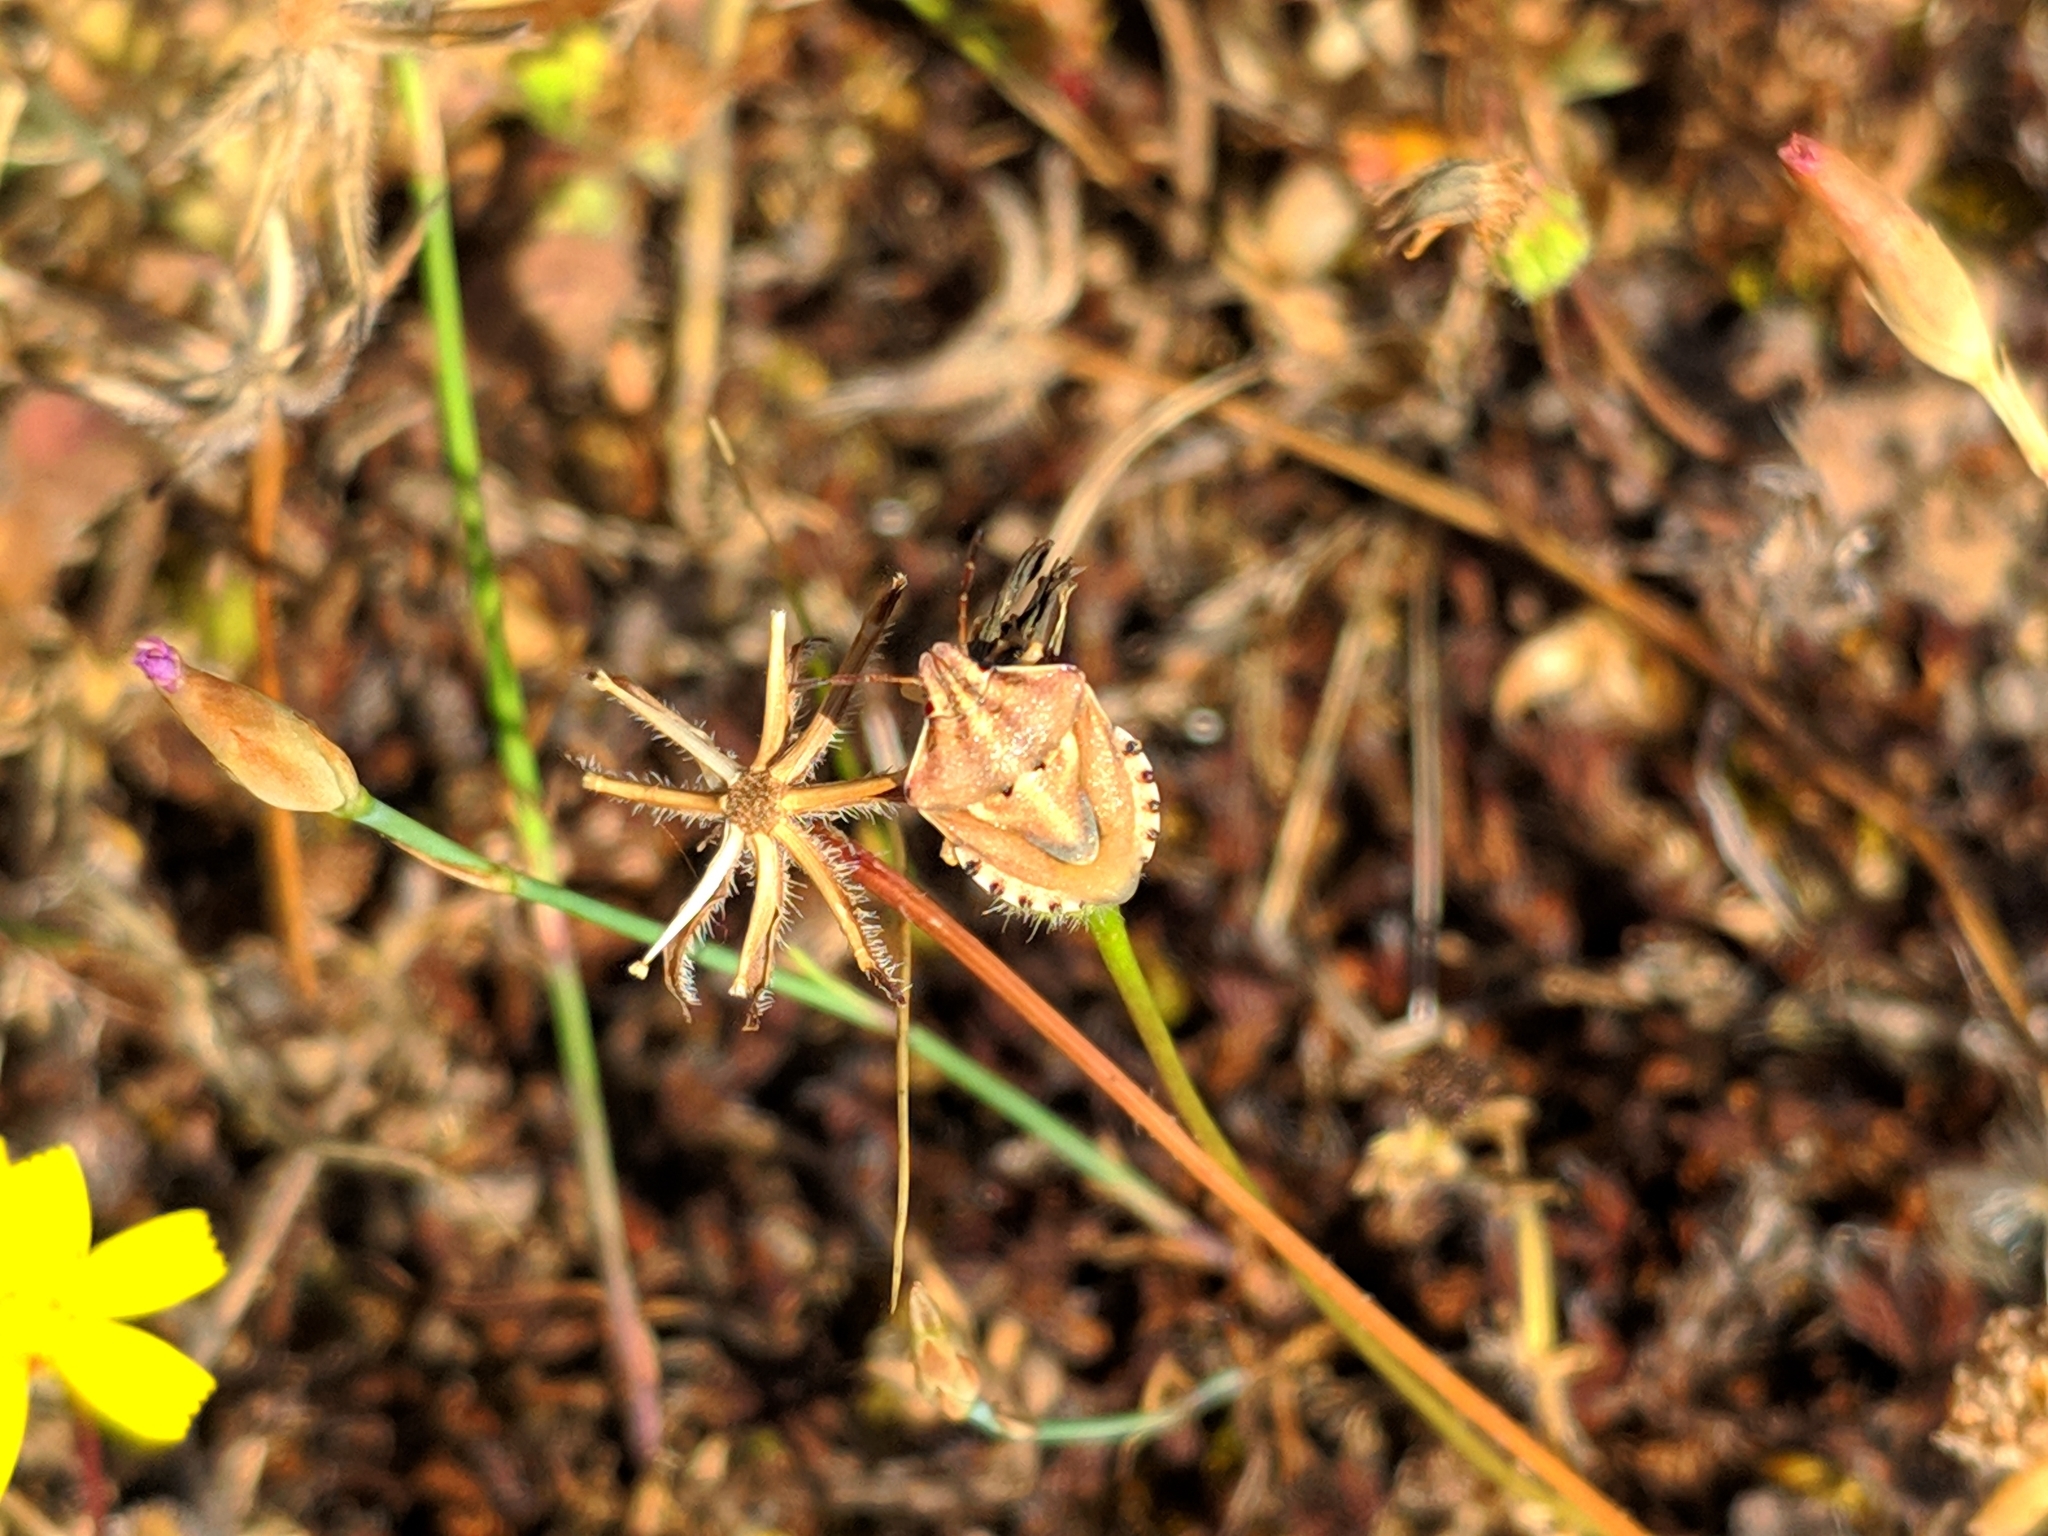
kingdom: Animalia
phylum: Arthropoda
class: Insecta
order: Hemiptera
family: Pentatomidae
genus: Antheminia
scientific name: Antheminia absinthii
